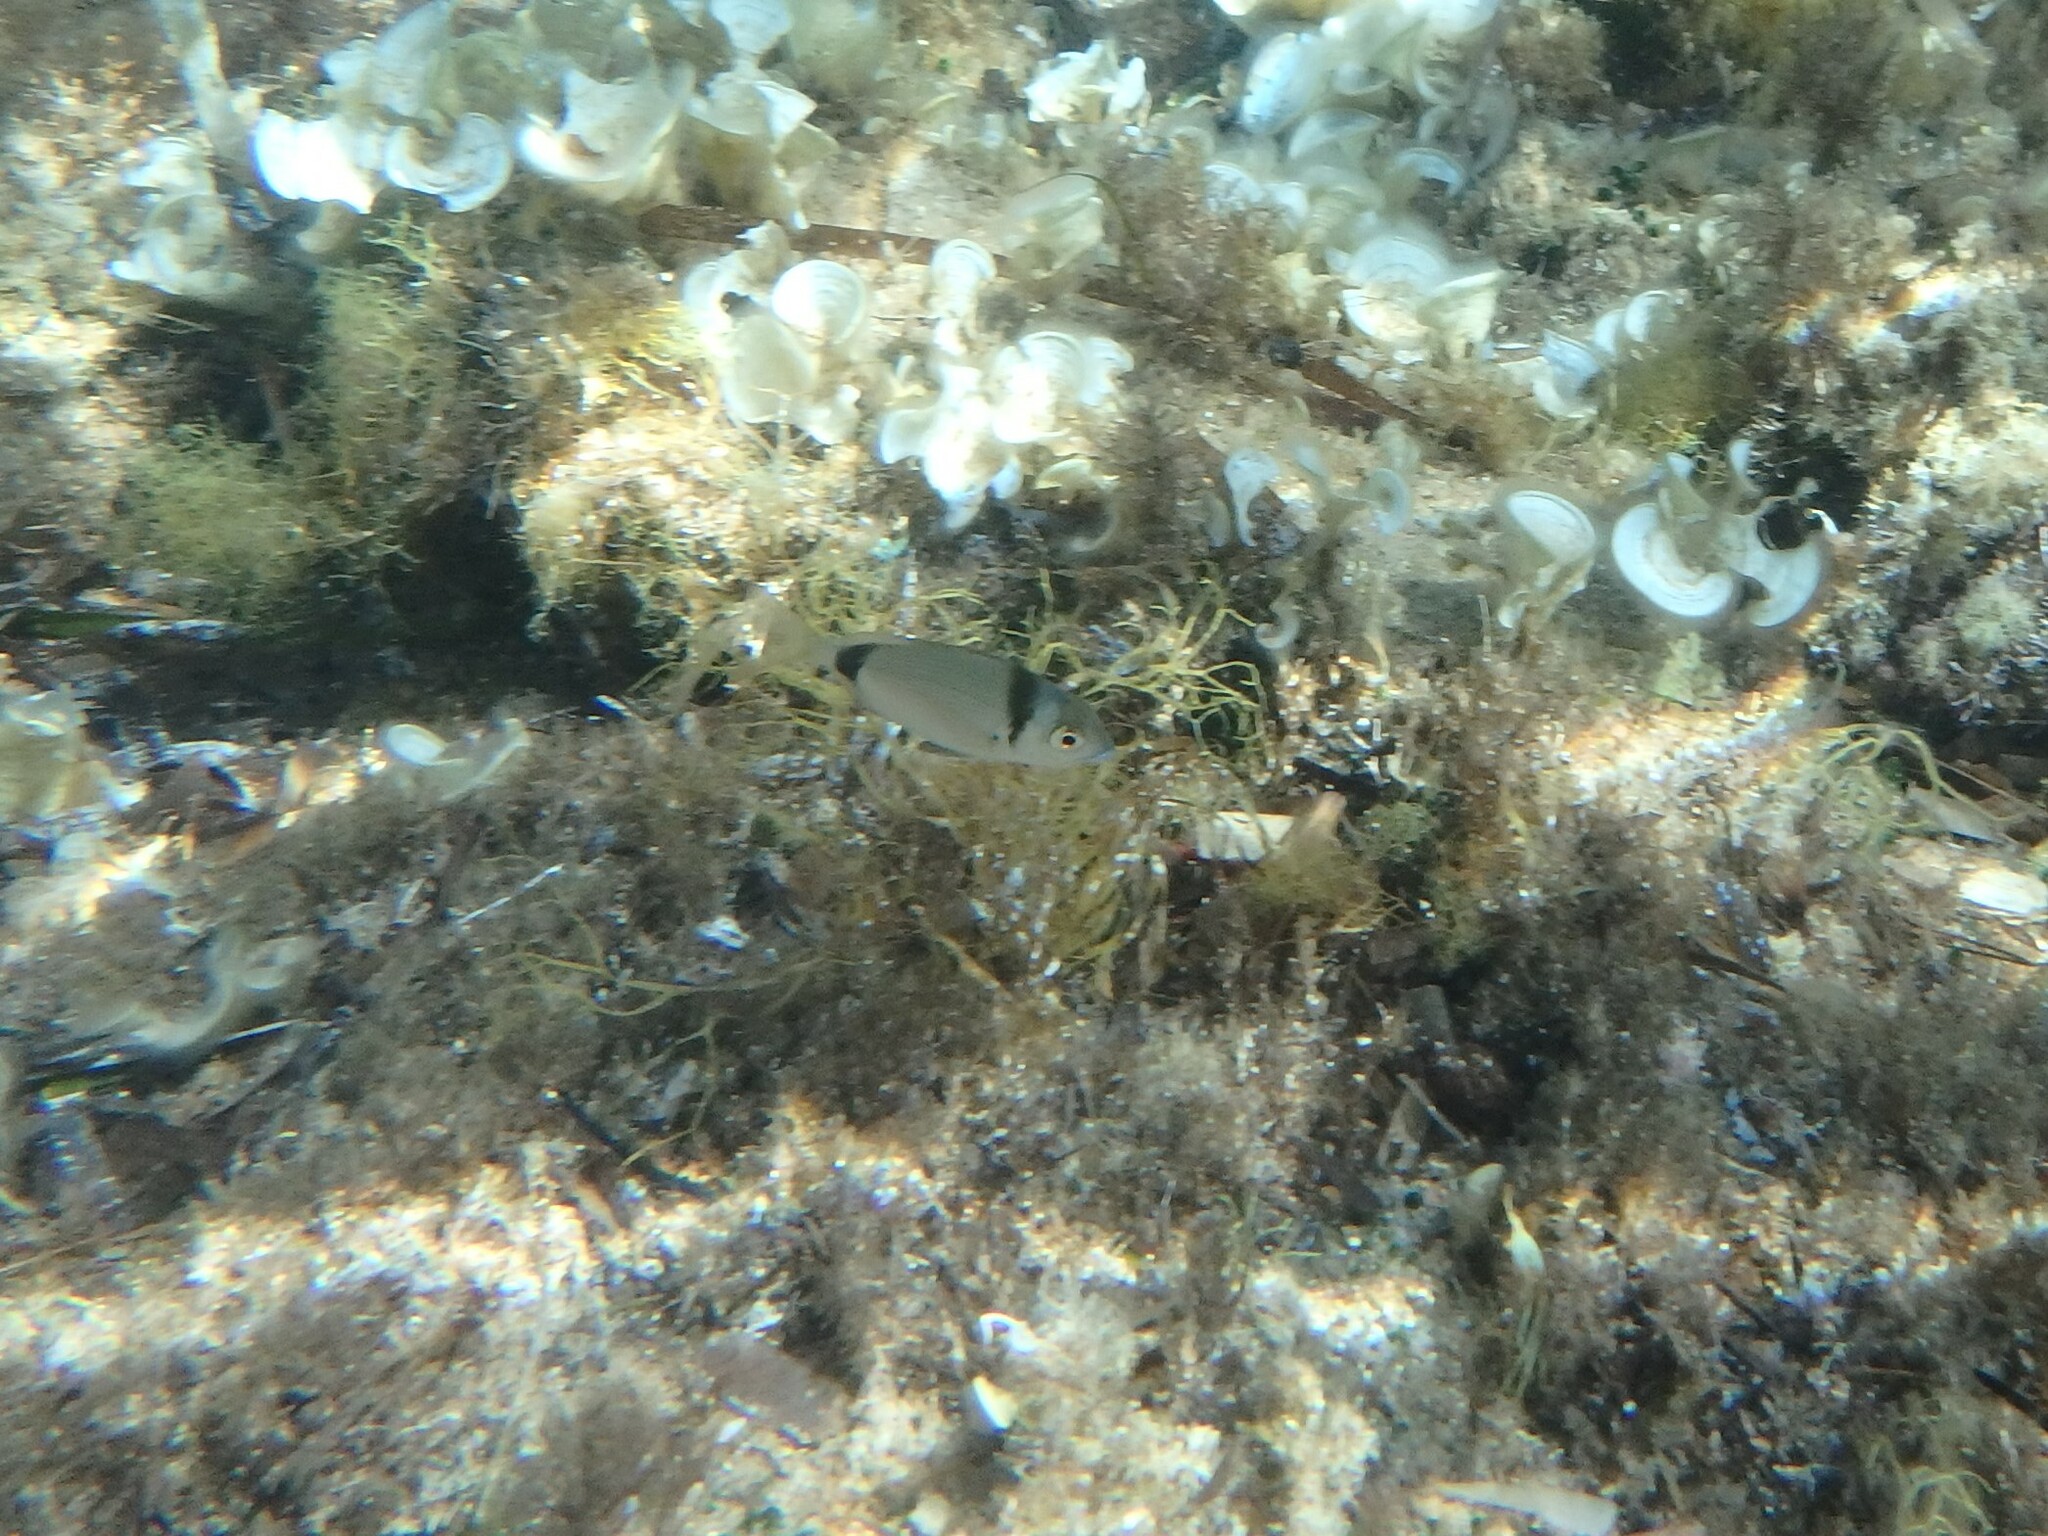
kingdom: Animalia
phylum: Chordata
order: Perciformes
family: Sparidae
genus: Diplodus
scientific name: Diplodus vulgaris
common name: Common two-banded seabream
